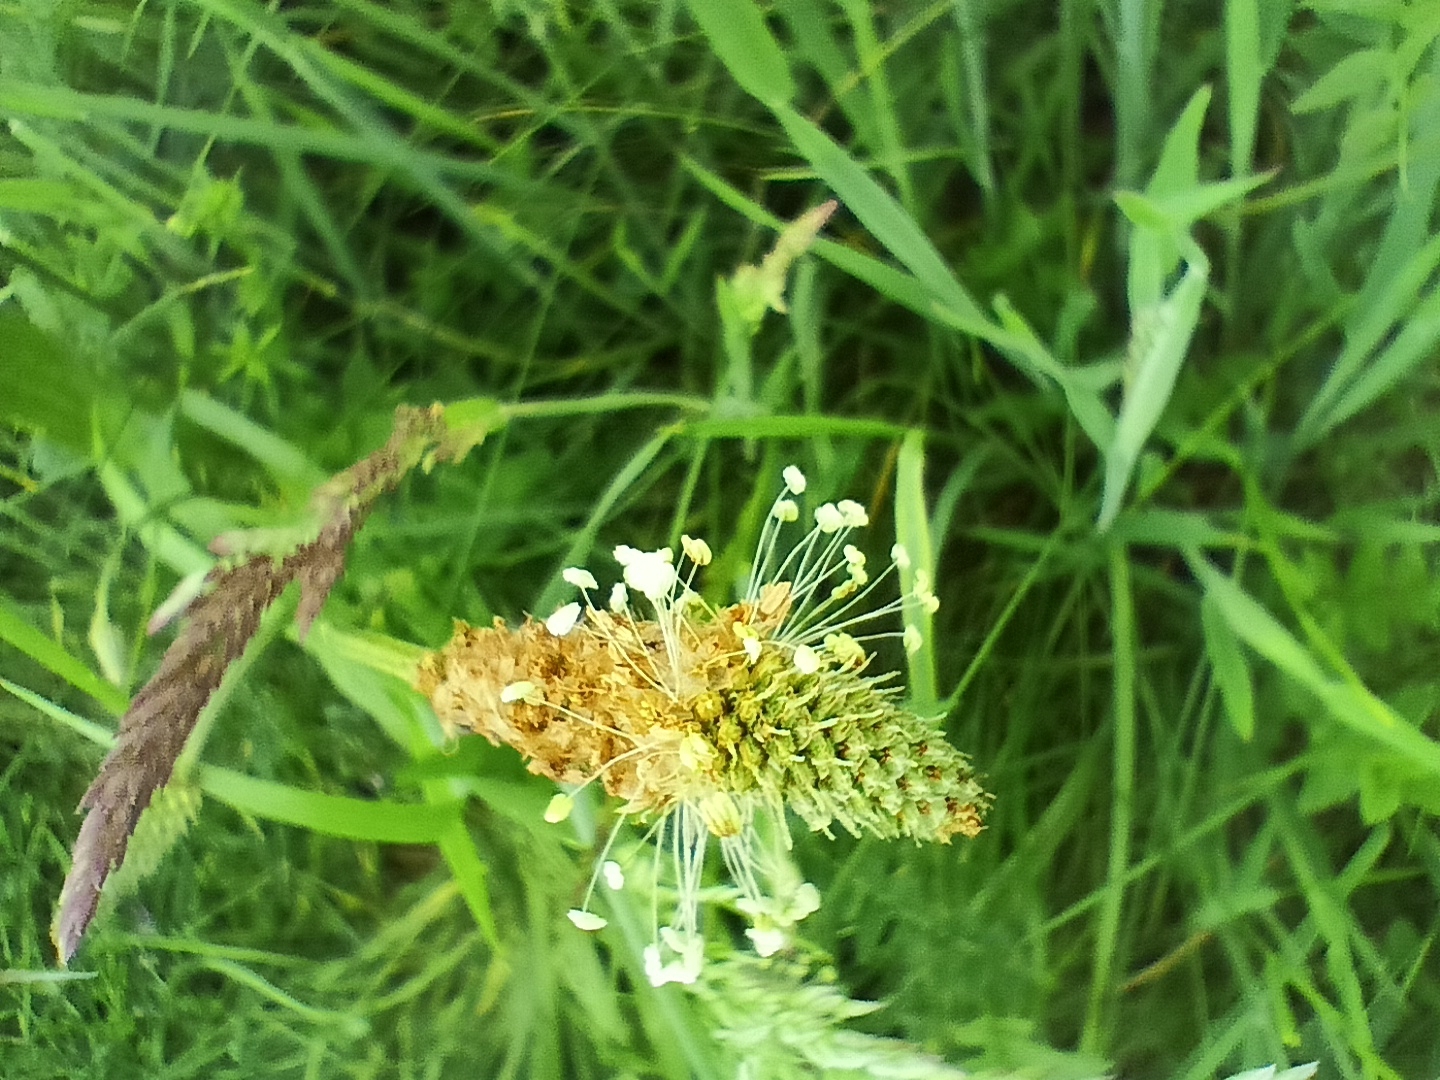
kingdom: Plantae
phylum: Tracheophyta
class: Magnoliopsida
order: Lamiales
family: Plantaginaceae
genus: Plantago
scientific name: Plantago lanceolata
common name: Ribwort plantain
